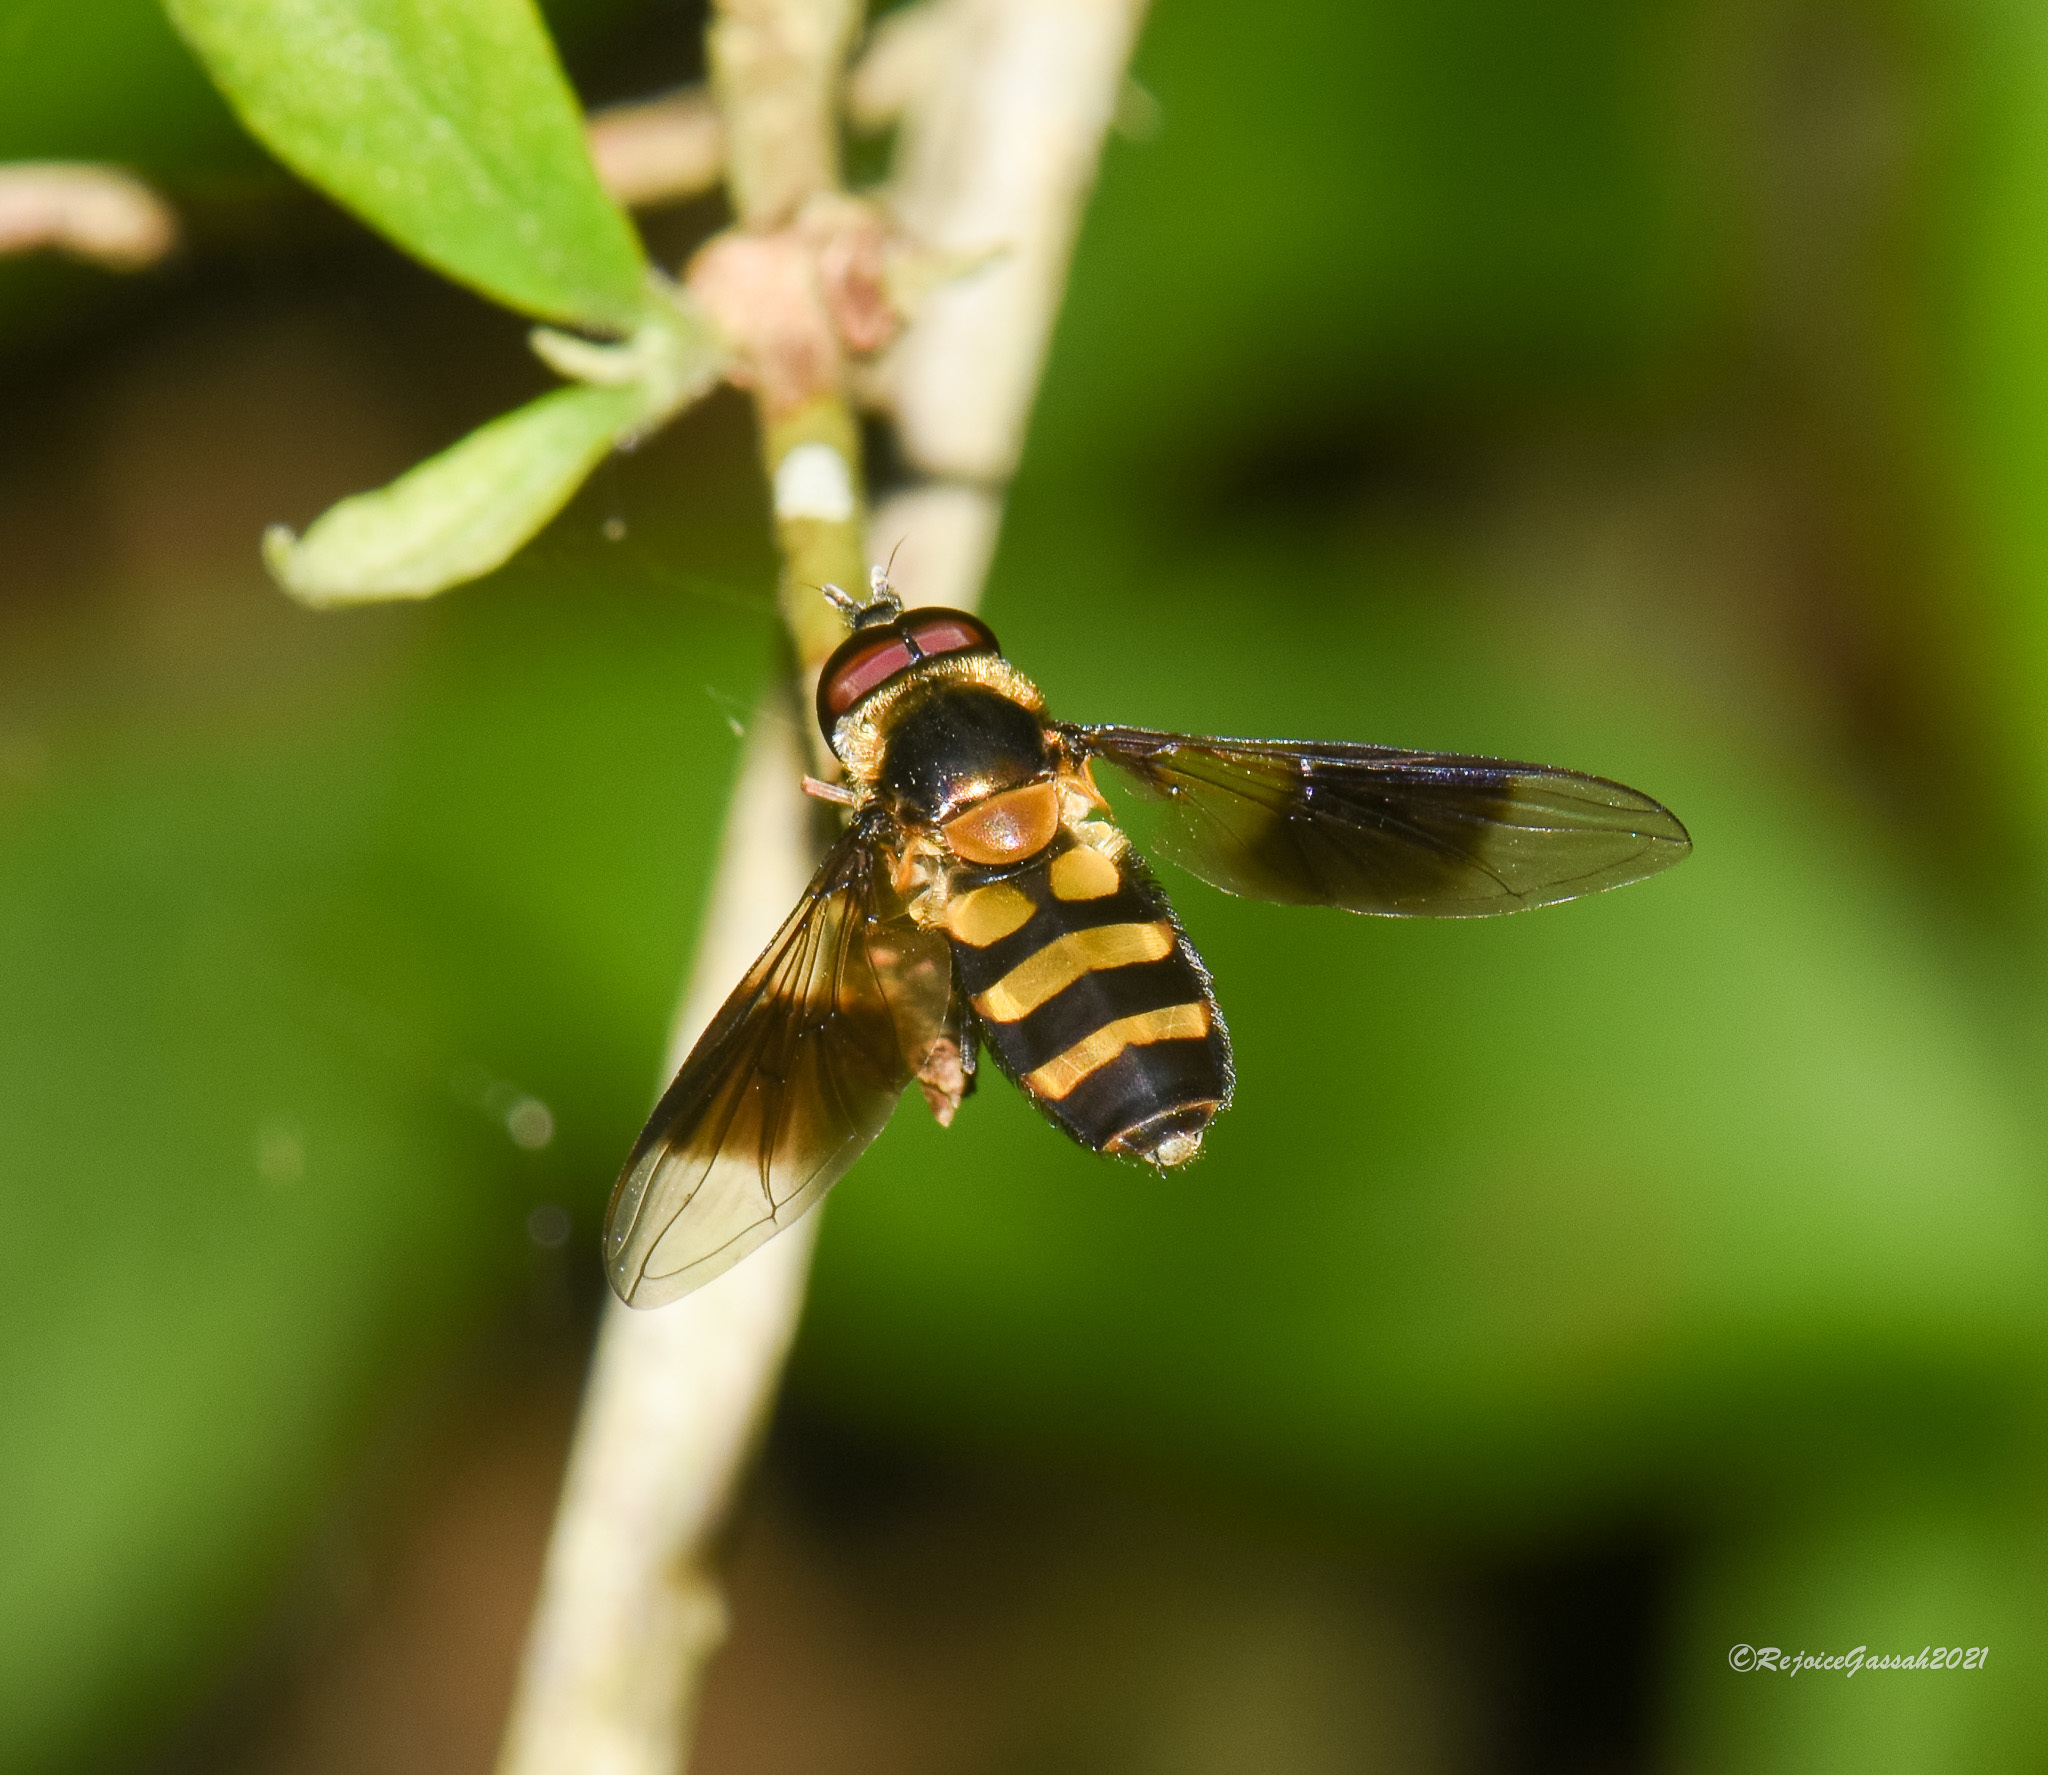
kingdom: Animalia
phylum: Arthropoda
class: Insecta
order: Diptera
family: Syrphidae
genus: Dideopsis
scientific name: Dideopsis aegrota
